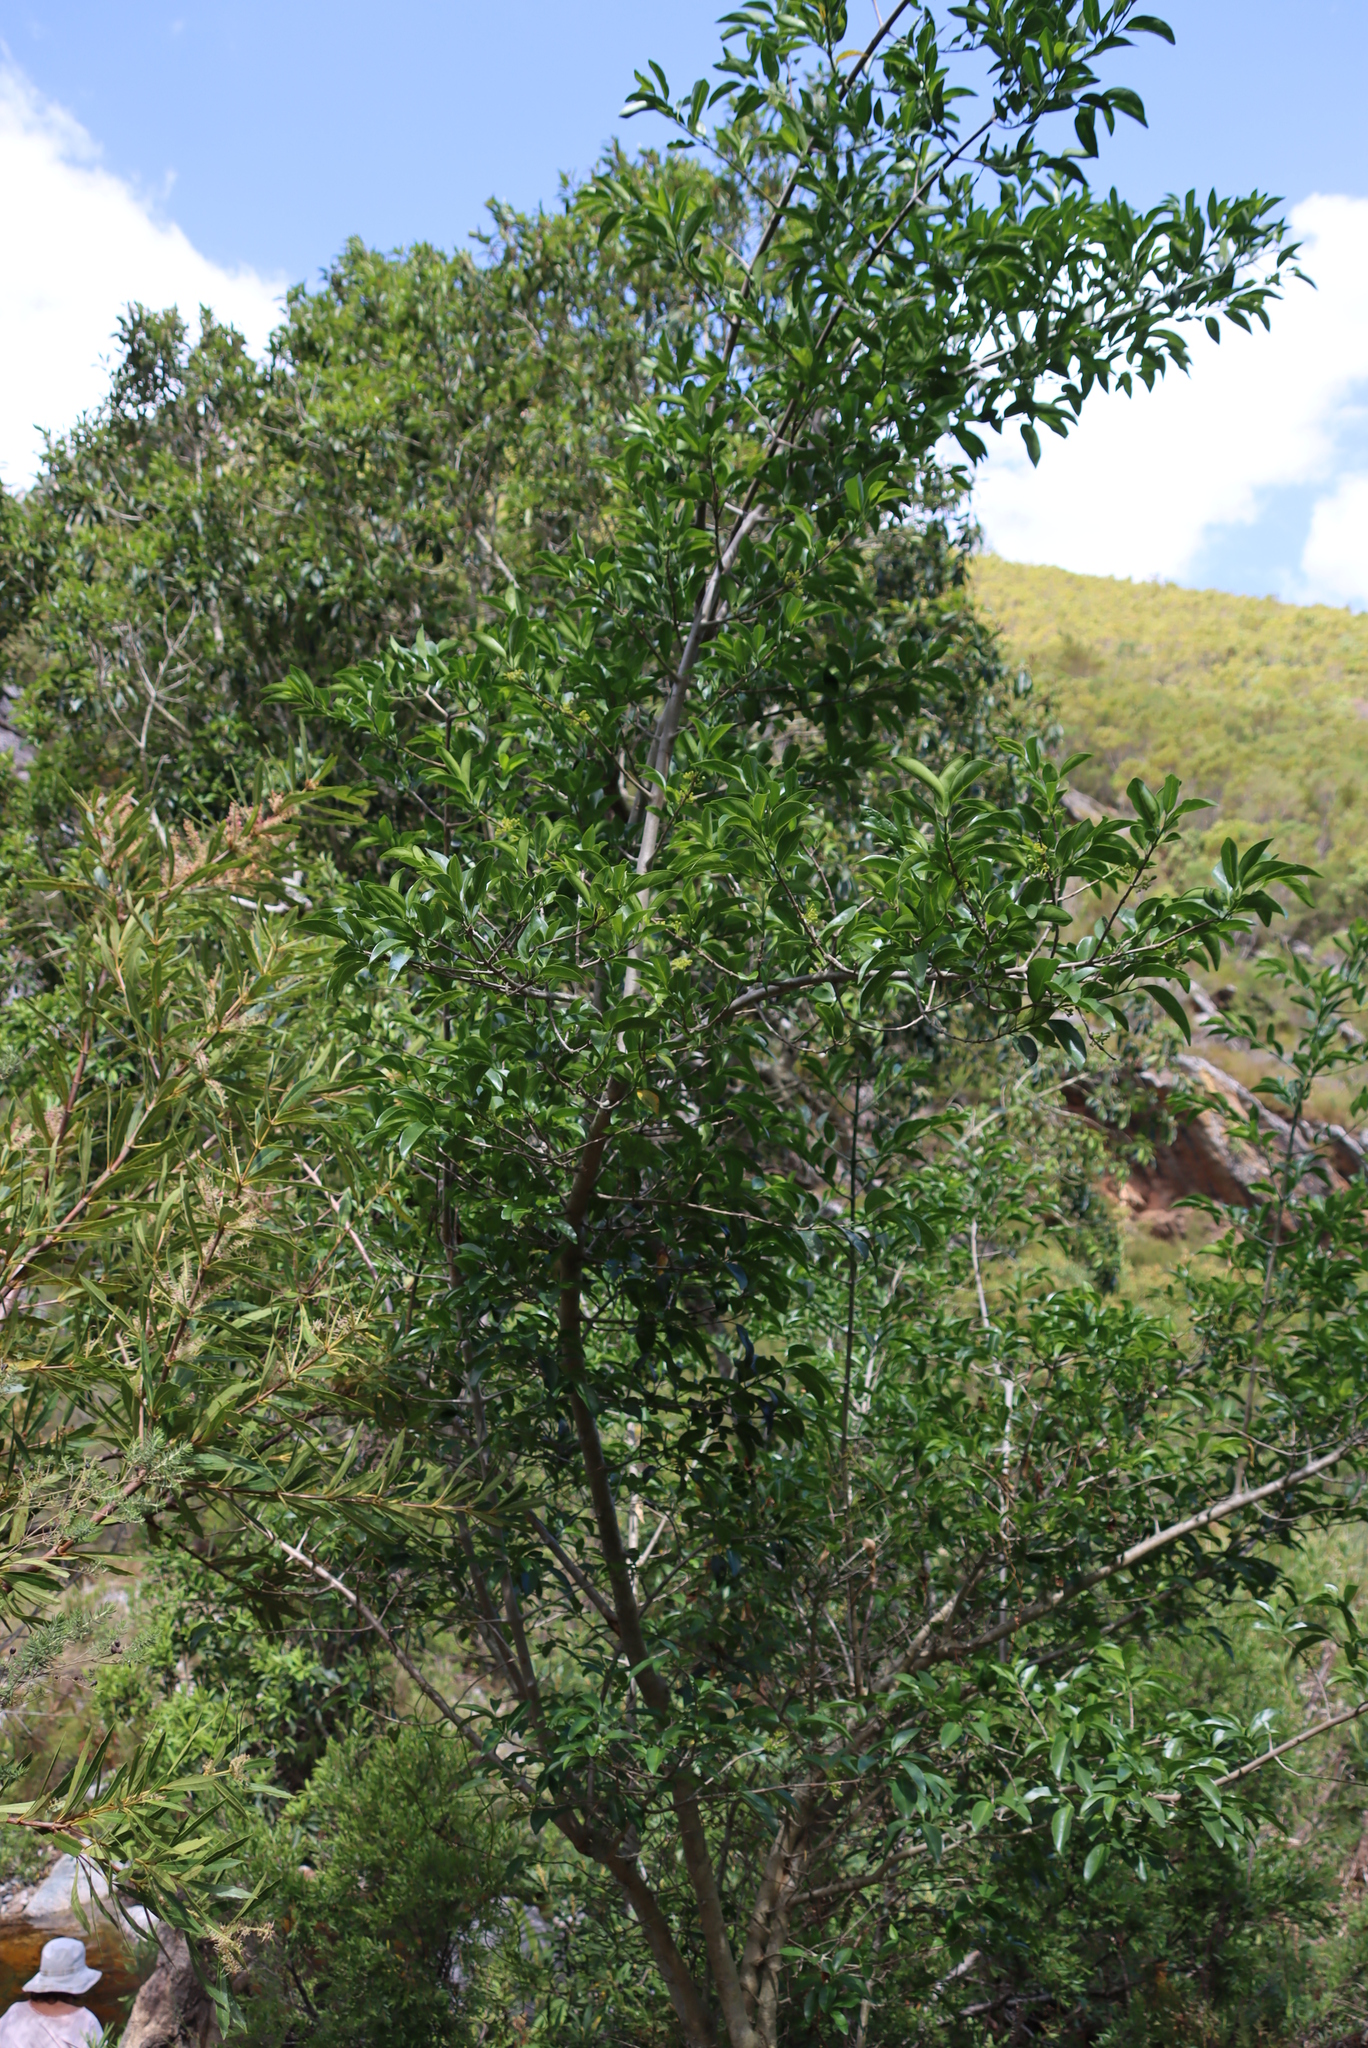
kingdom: Plantae
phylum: Tracheophyta
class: Magnoliopsida
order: Gentianales
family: Rubiaceae
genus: Canthium
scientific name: Canthium inerme
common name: Unarmed turkey-berry
